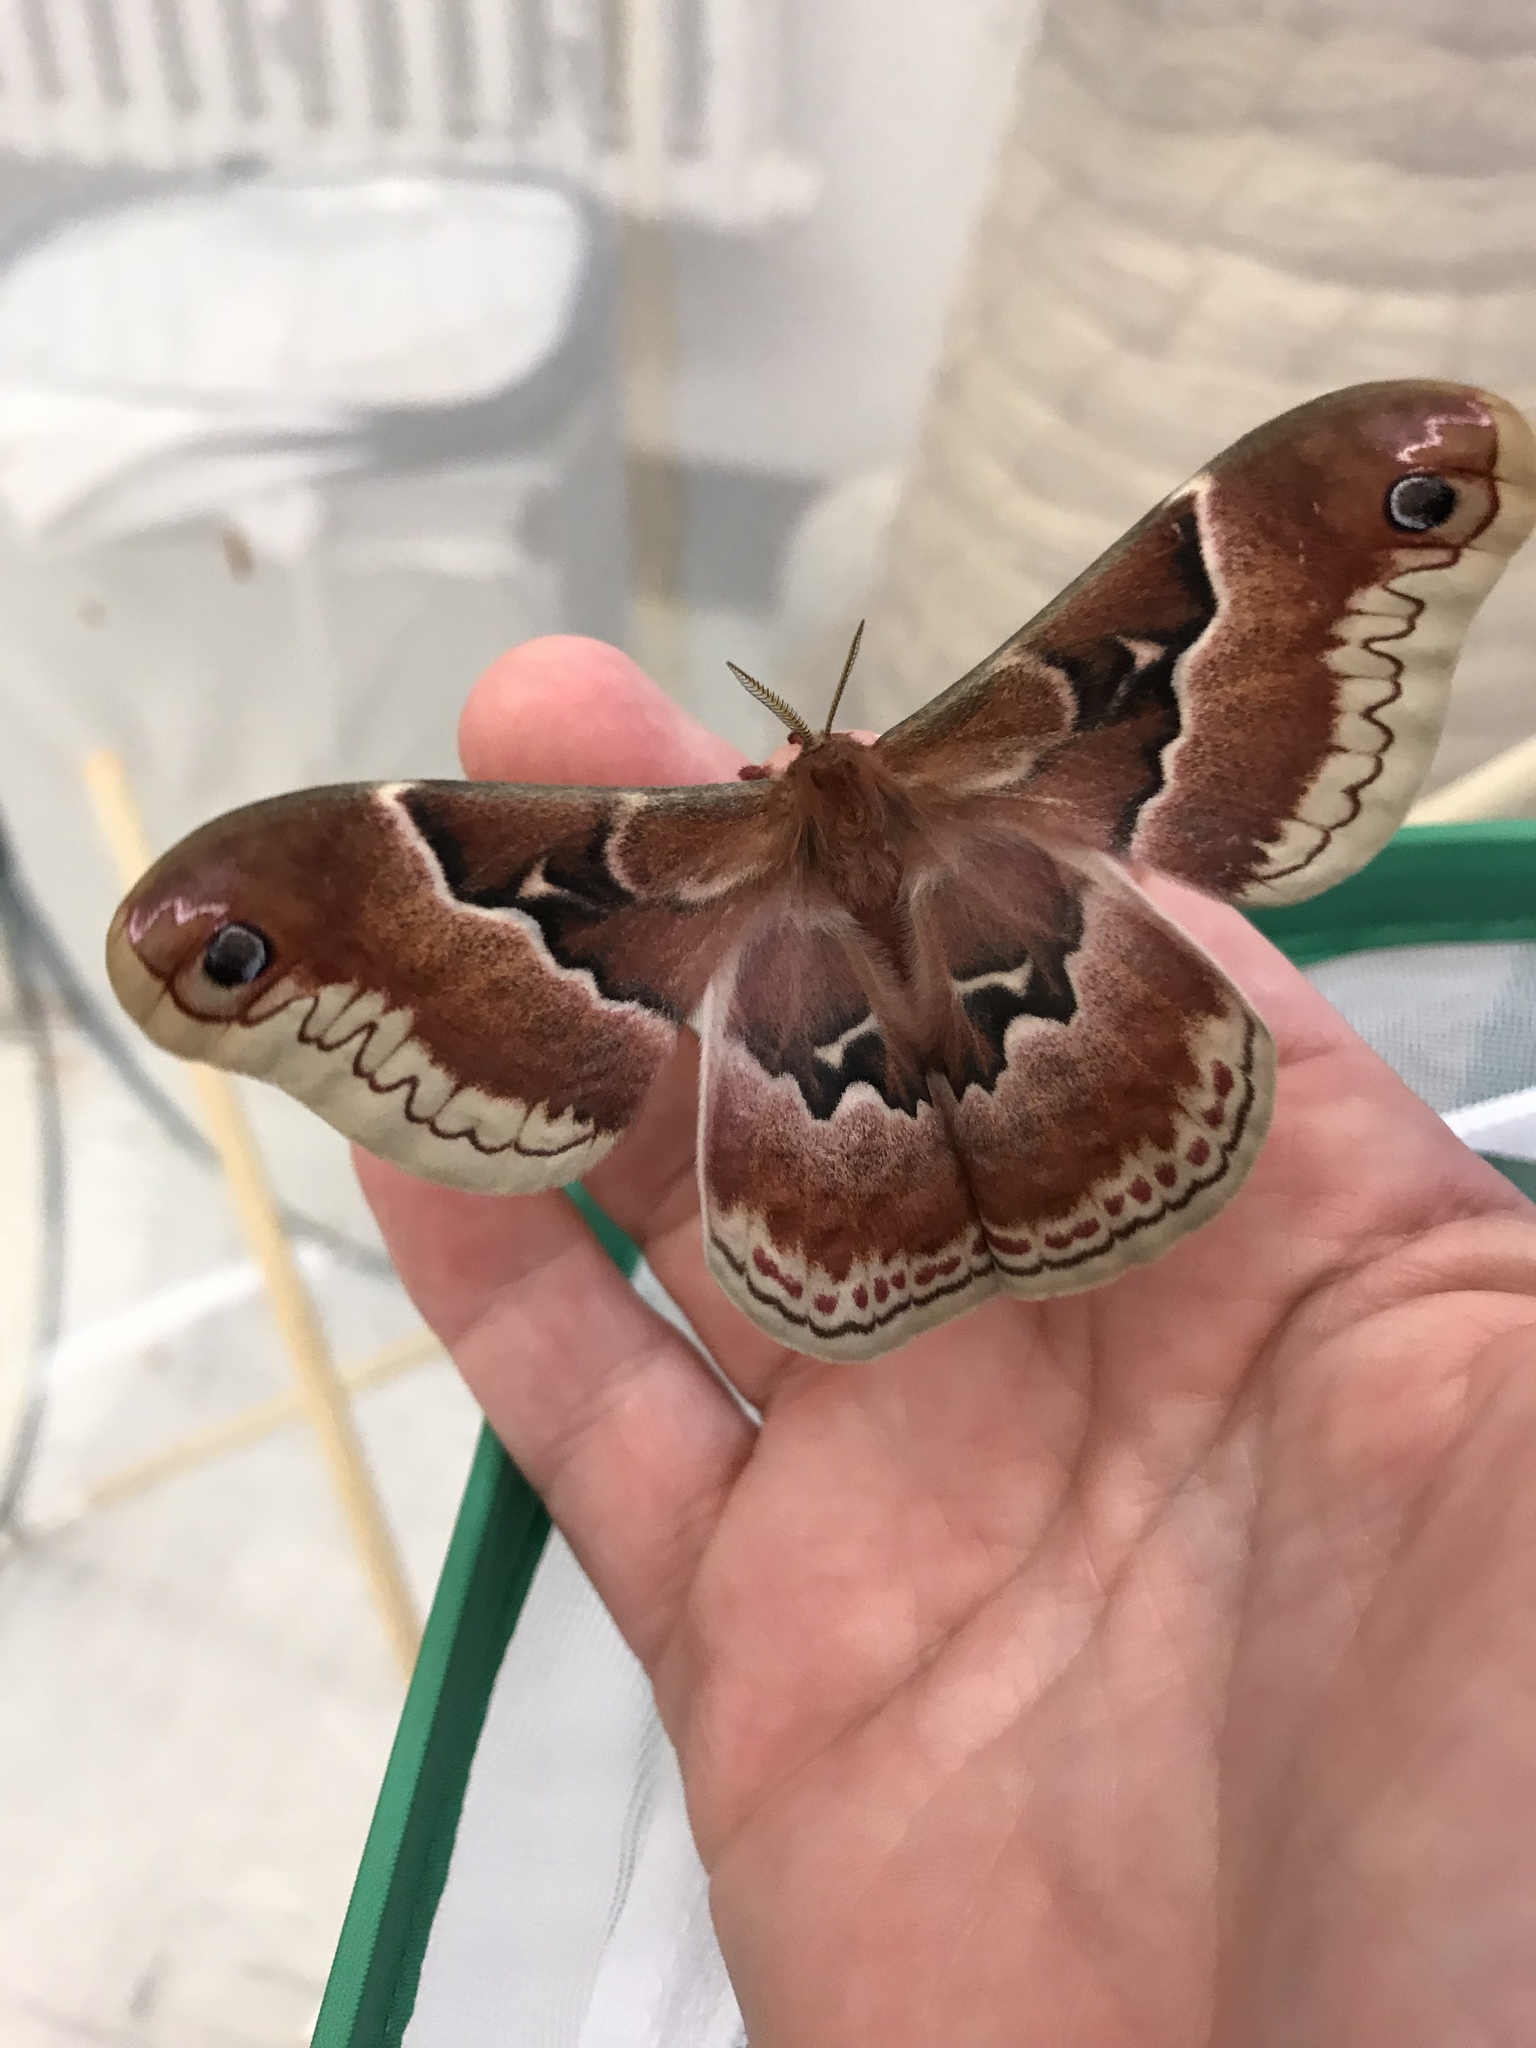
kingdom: Animalia
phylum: Arthropoda
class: Insecta
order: Lepidoptera
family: Saturniidae
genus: Callosamia
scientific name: Callosamia promethea
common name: Promethea silkmoth
